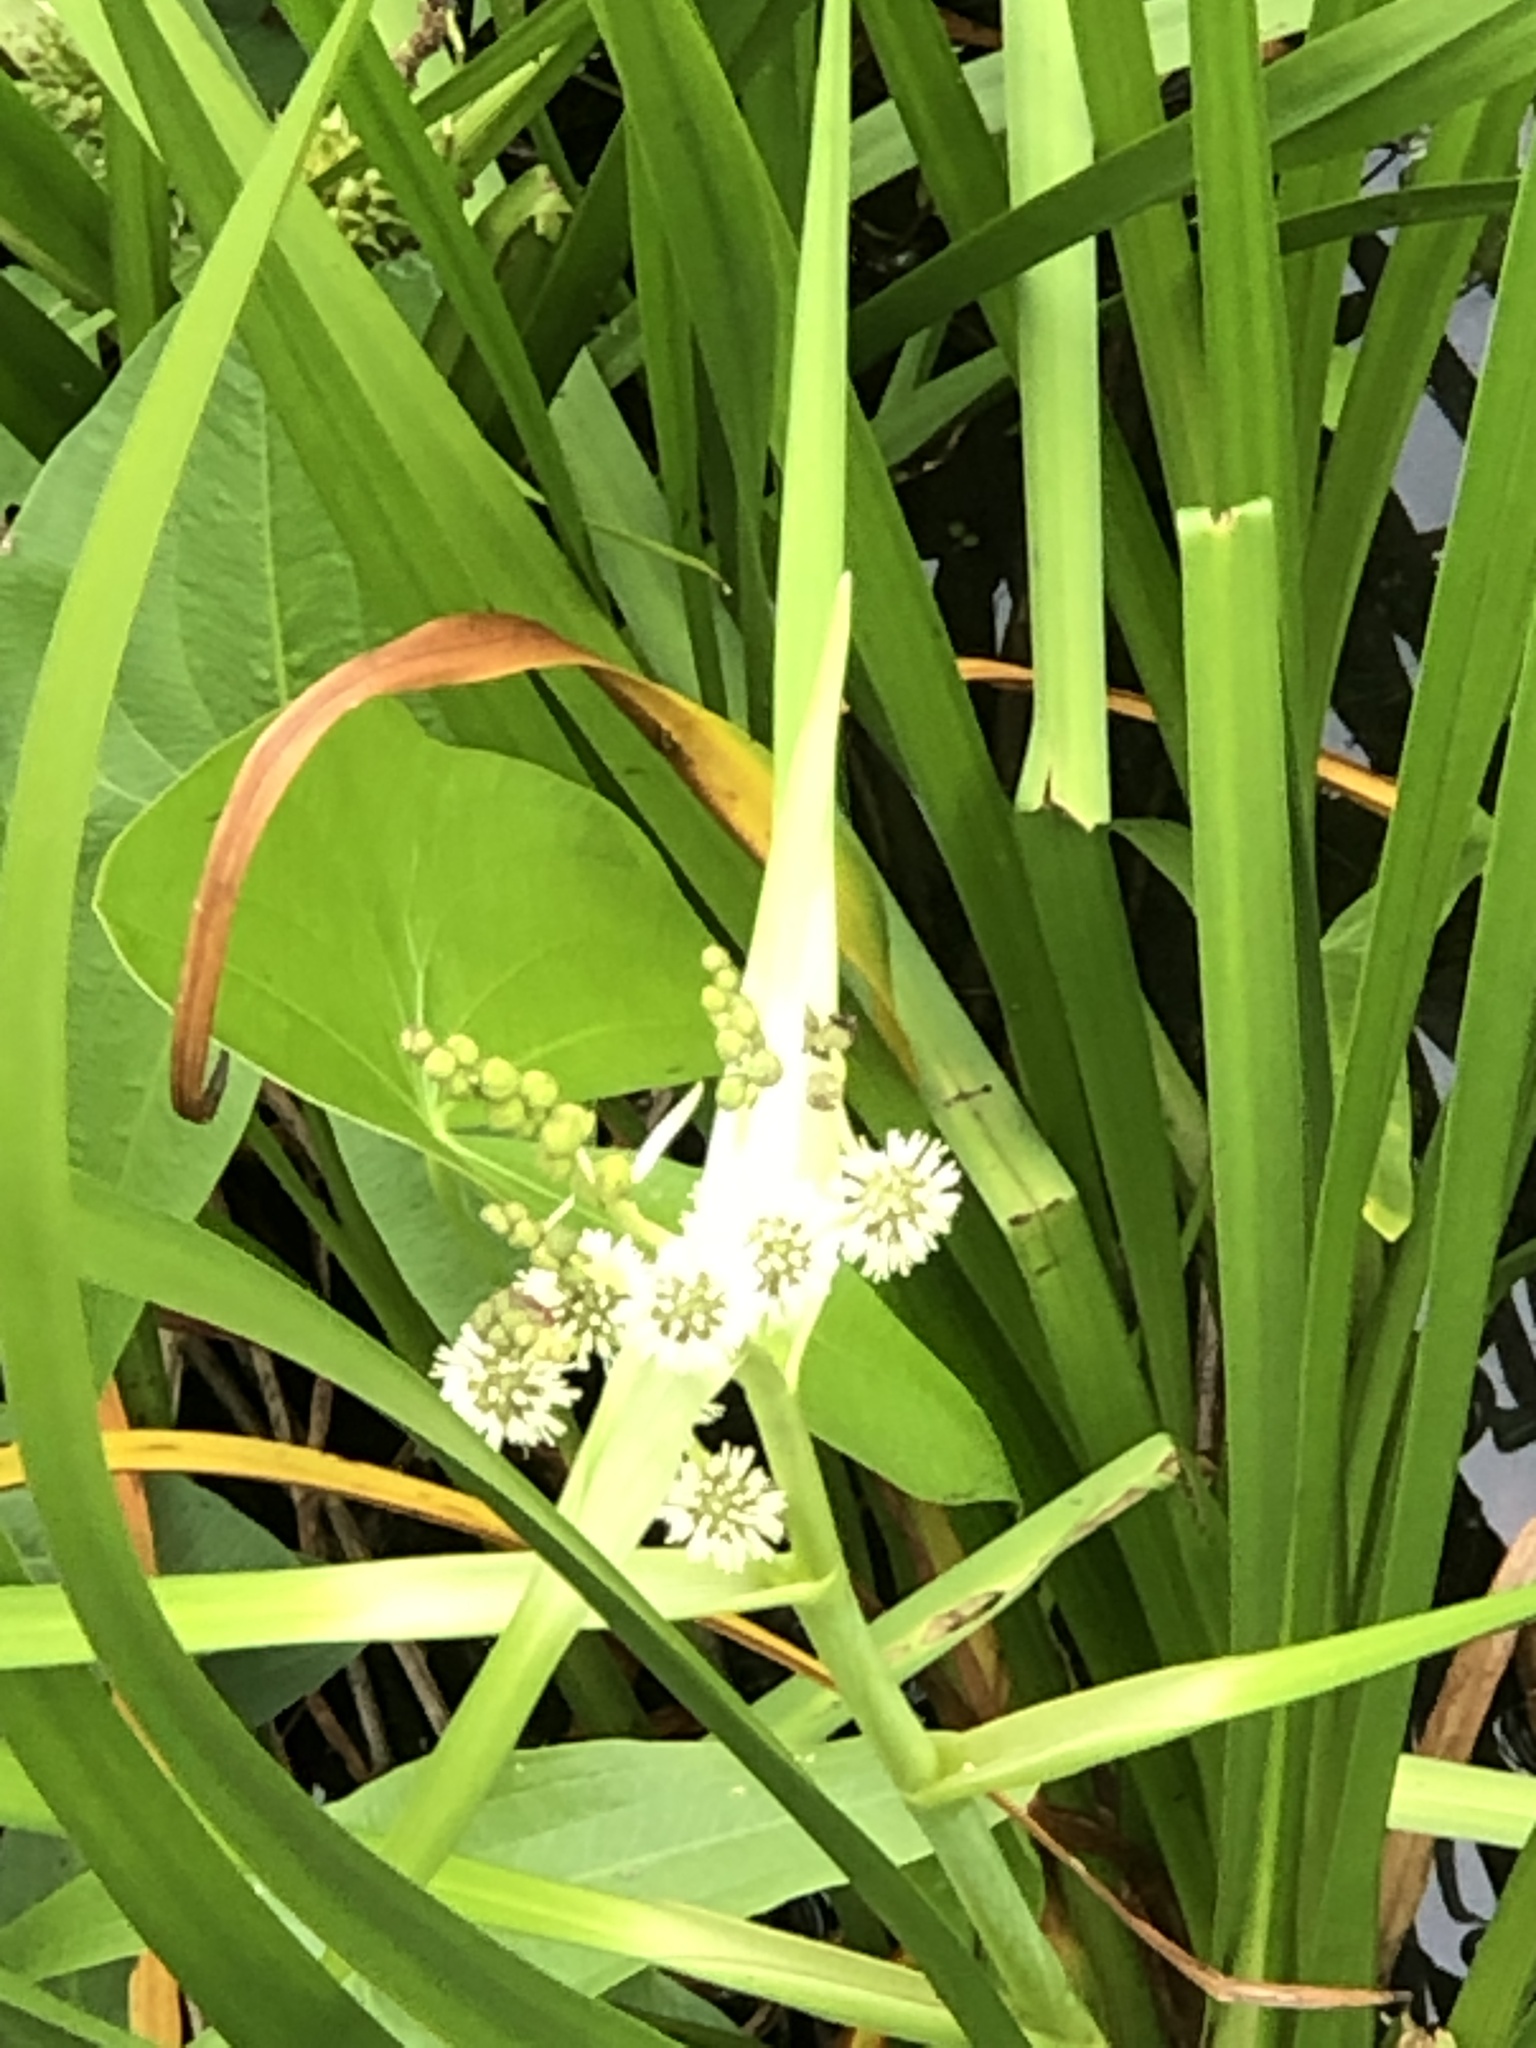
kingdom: Plantae
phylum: Tracheophyta
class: Liliopsida
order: Poales
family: Typhaceae
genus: Sparganium
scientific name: Sparganium eurycarpum
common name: Broad-fruited burreed
